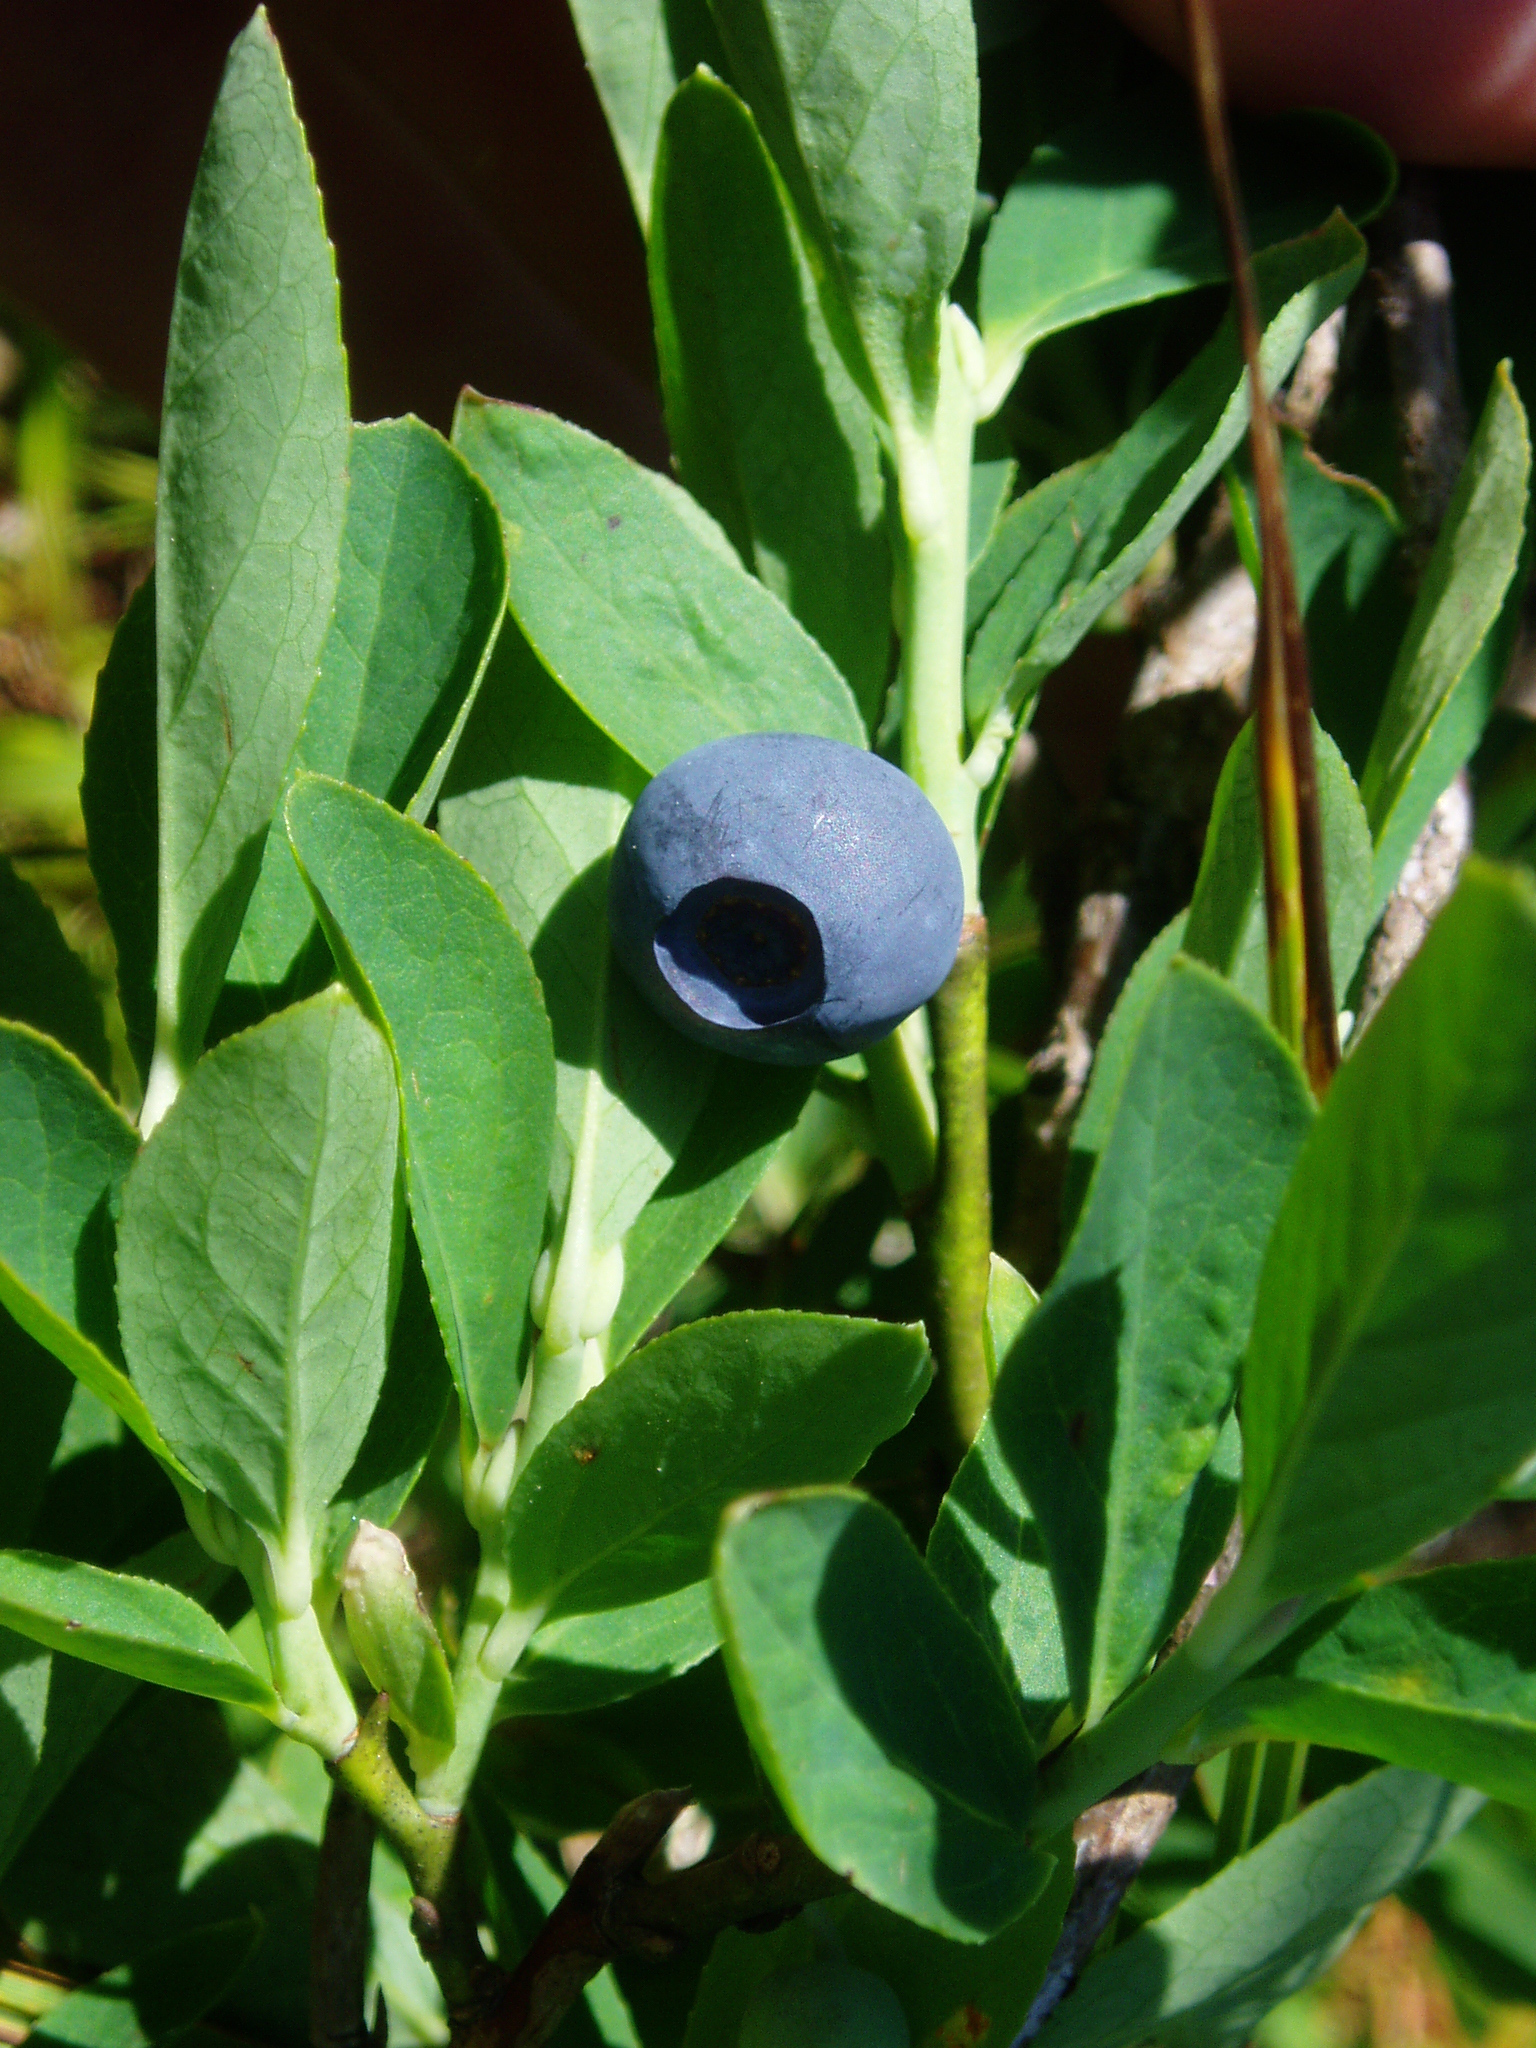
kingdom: Plantae
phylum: Tracheophyta
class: Magnoliopsida
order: Ericales
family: Ericaceae
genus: Vaccinium
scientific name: Vaccinium deliciosum
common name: Cascade bilberry
